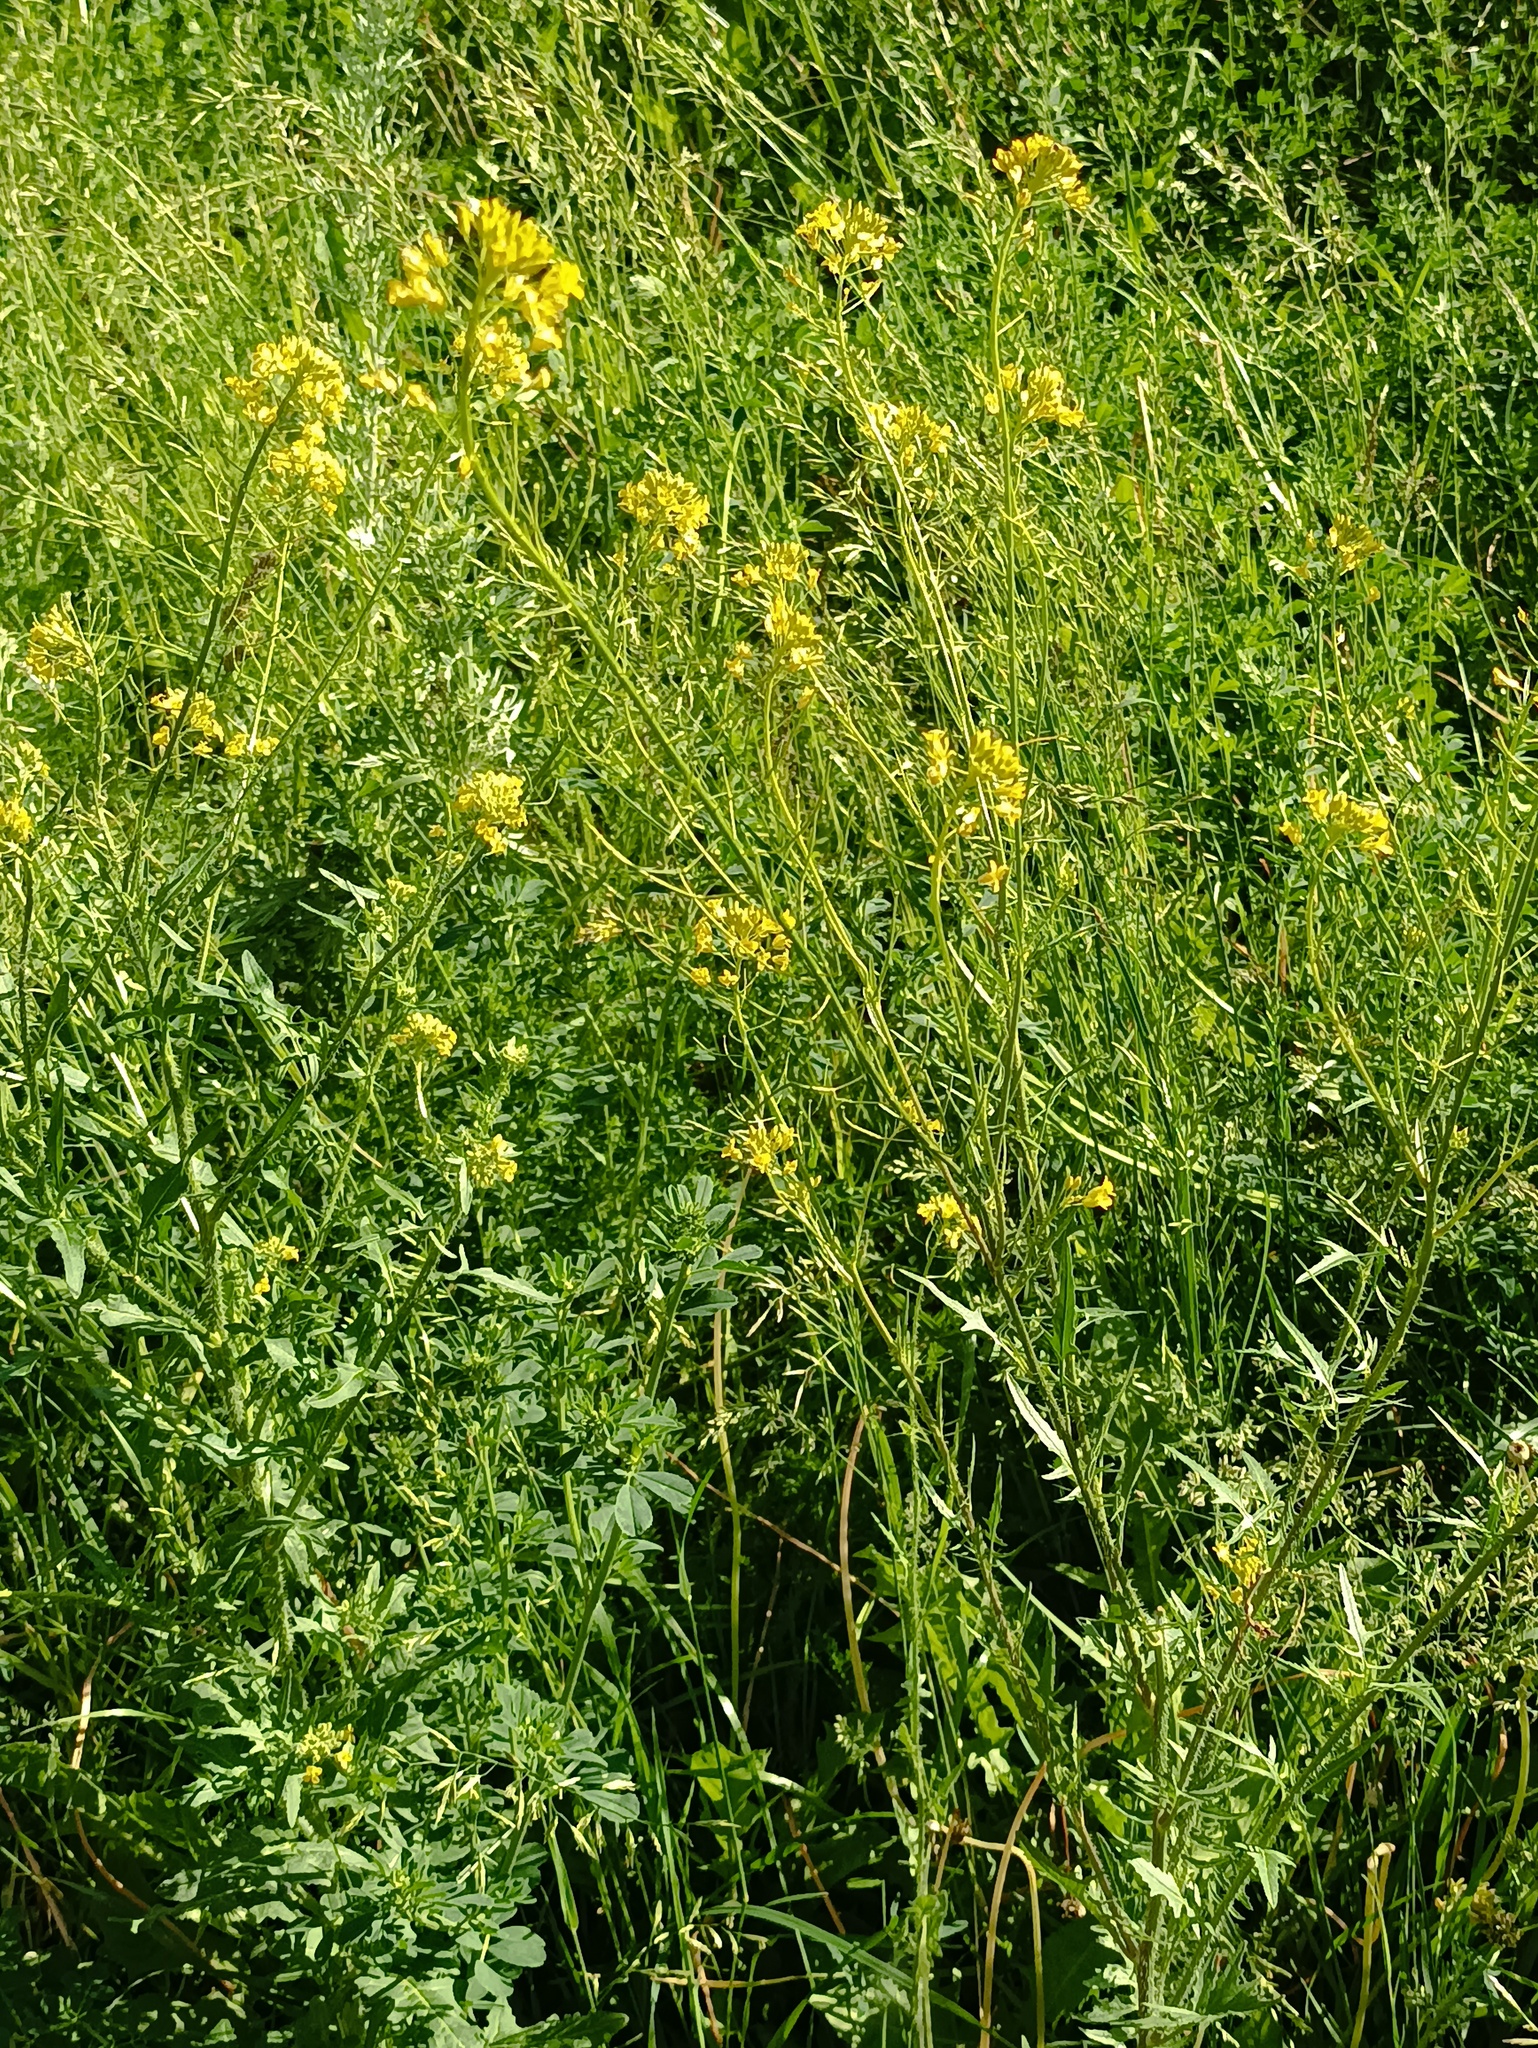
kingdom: Plantae
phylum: Tracheophyta
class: Magnoliopsida
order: Brassicales
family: Brassicaceae
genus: Sisymbrium
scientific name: Sisymbrium loeselii
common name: False london-rocket
